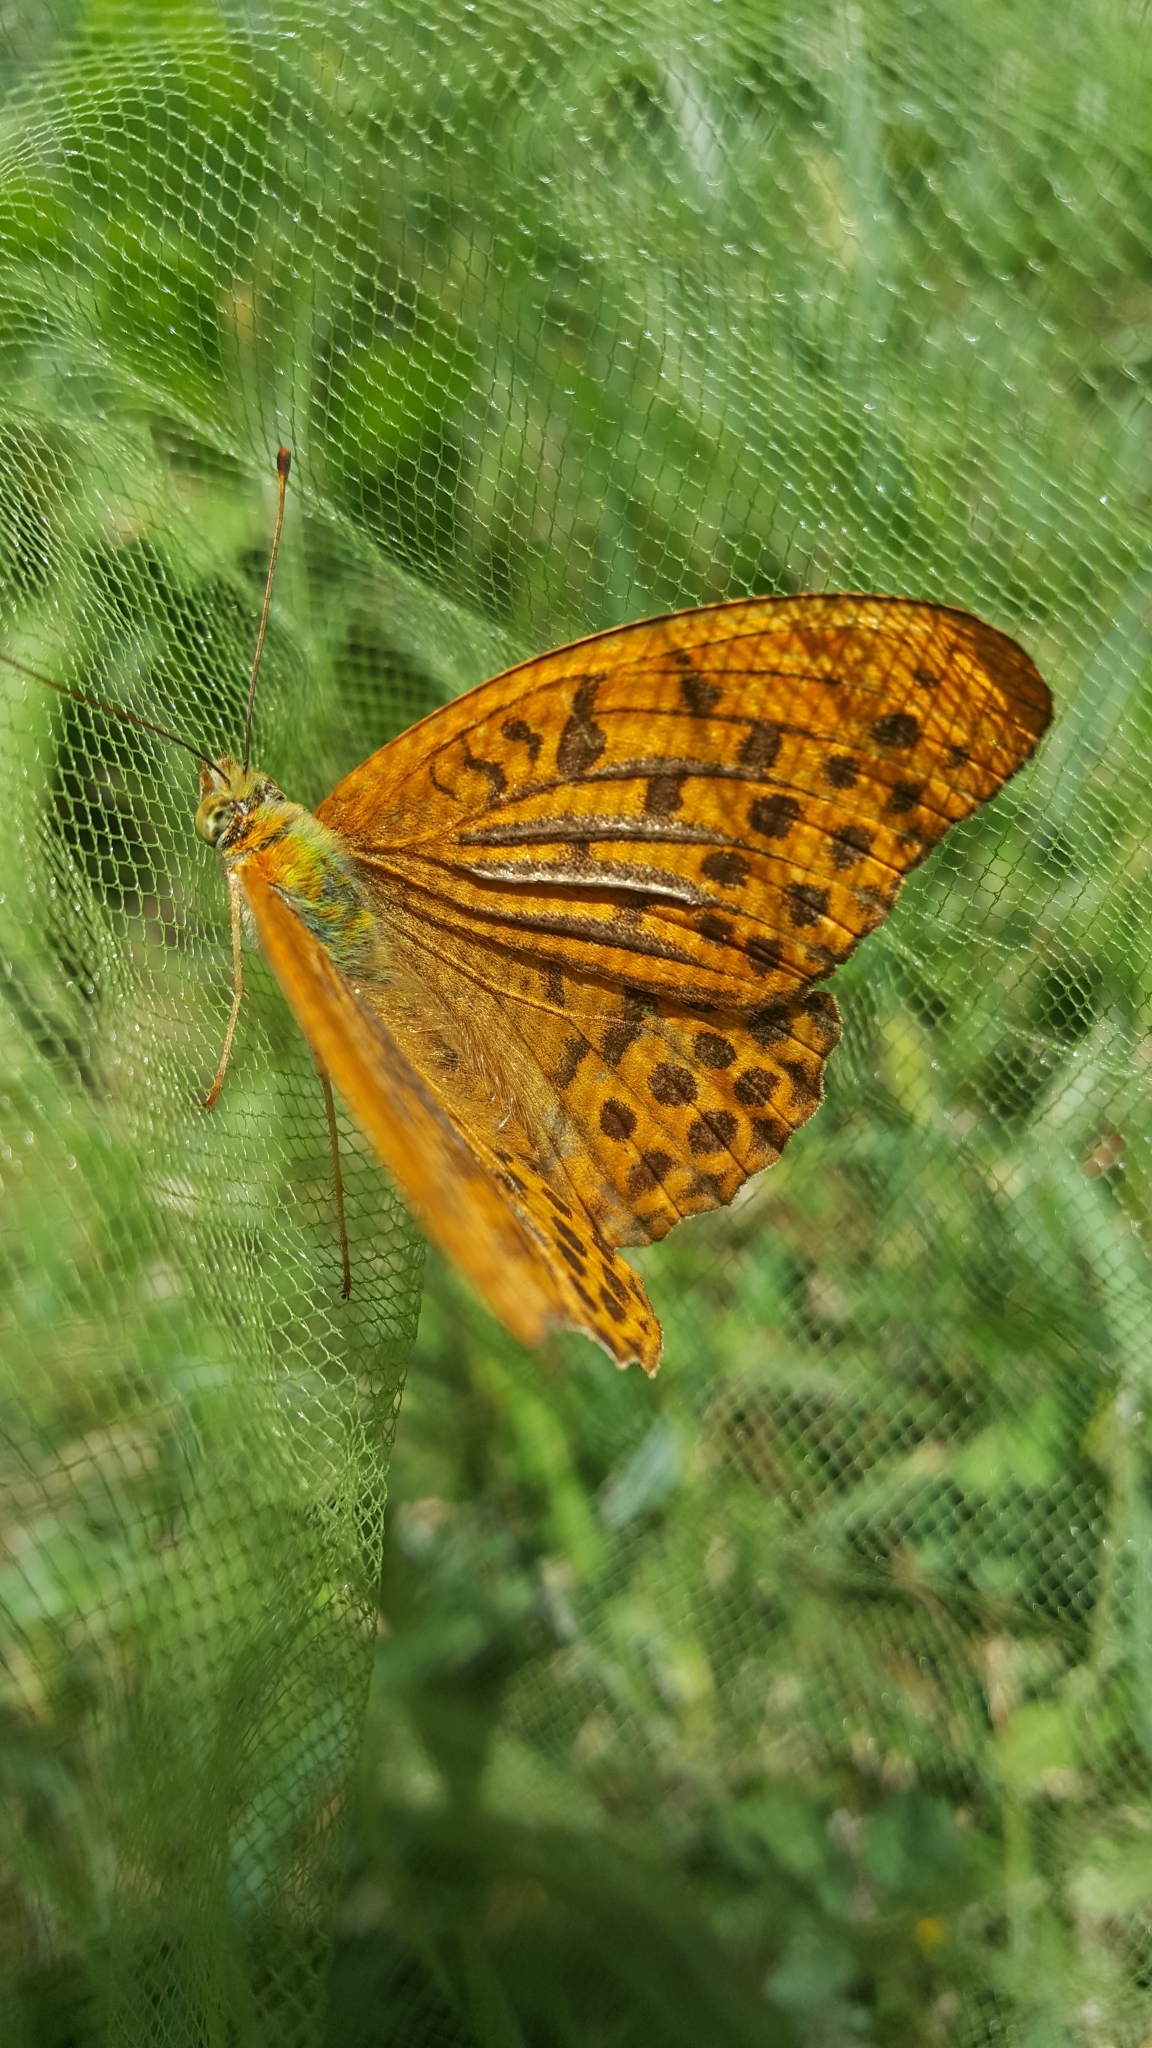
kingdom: Animalia
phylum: Arthropoda
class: Insecta
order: Lepidoptera
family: Nymphalidae
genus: Argynnis
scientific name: Argynnis paphia
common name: Silver-washed fritillary
